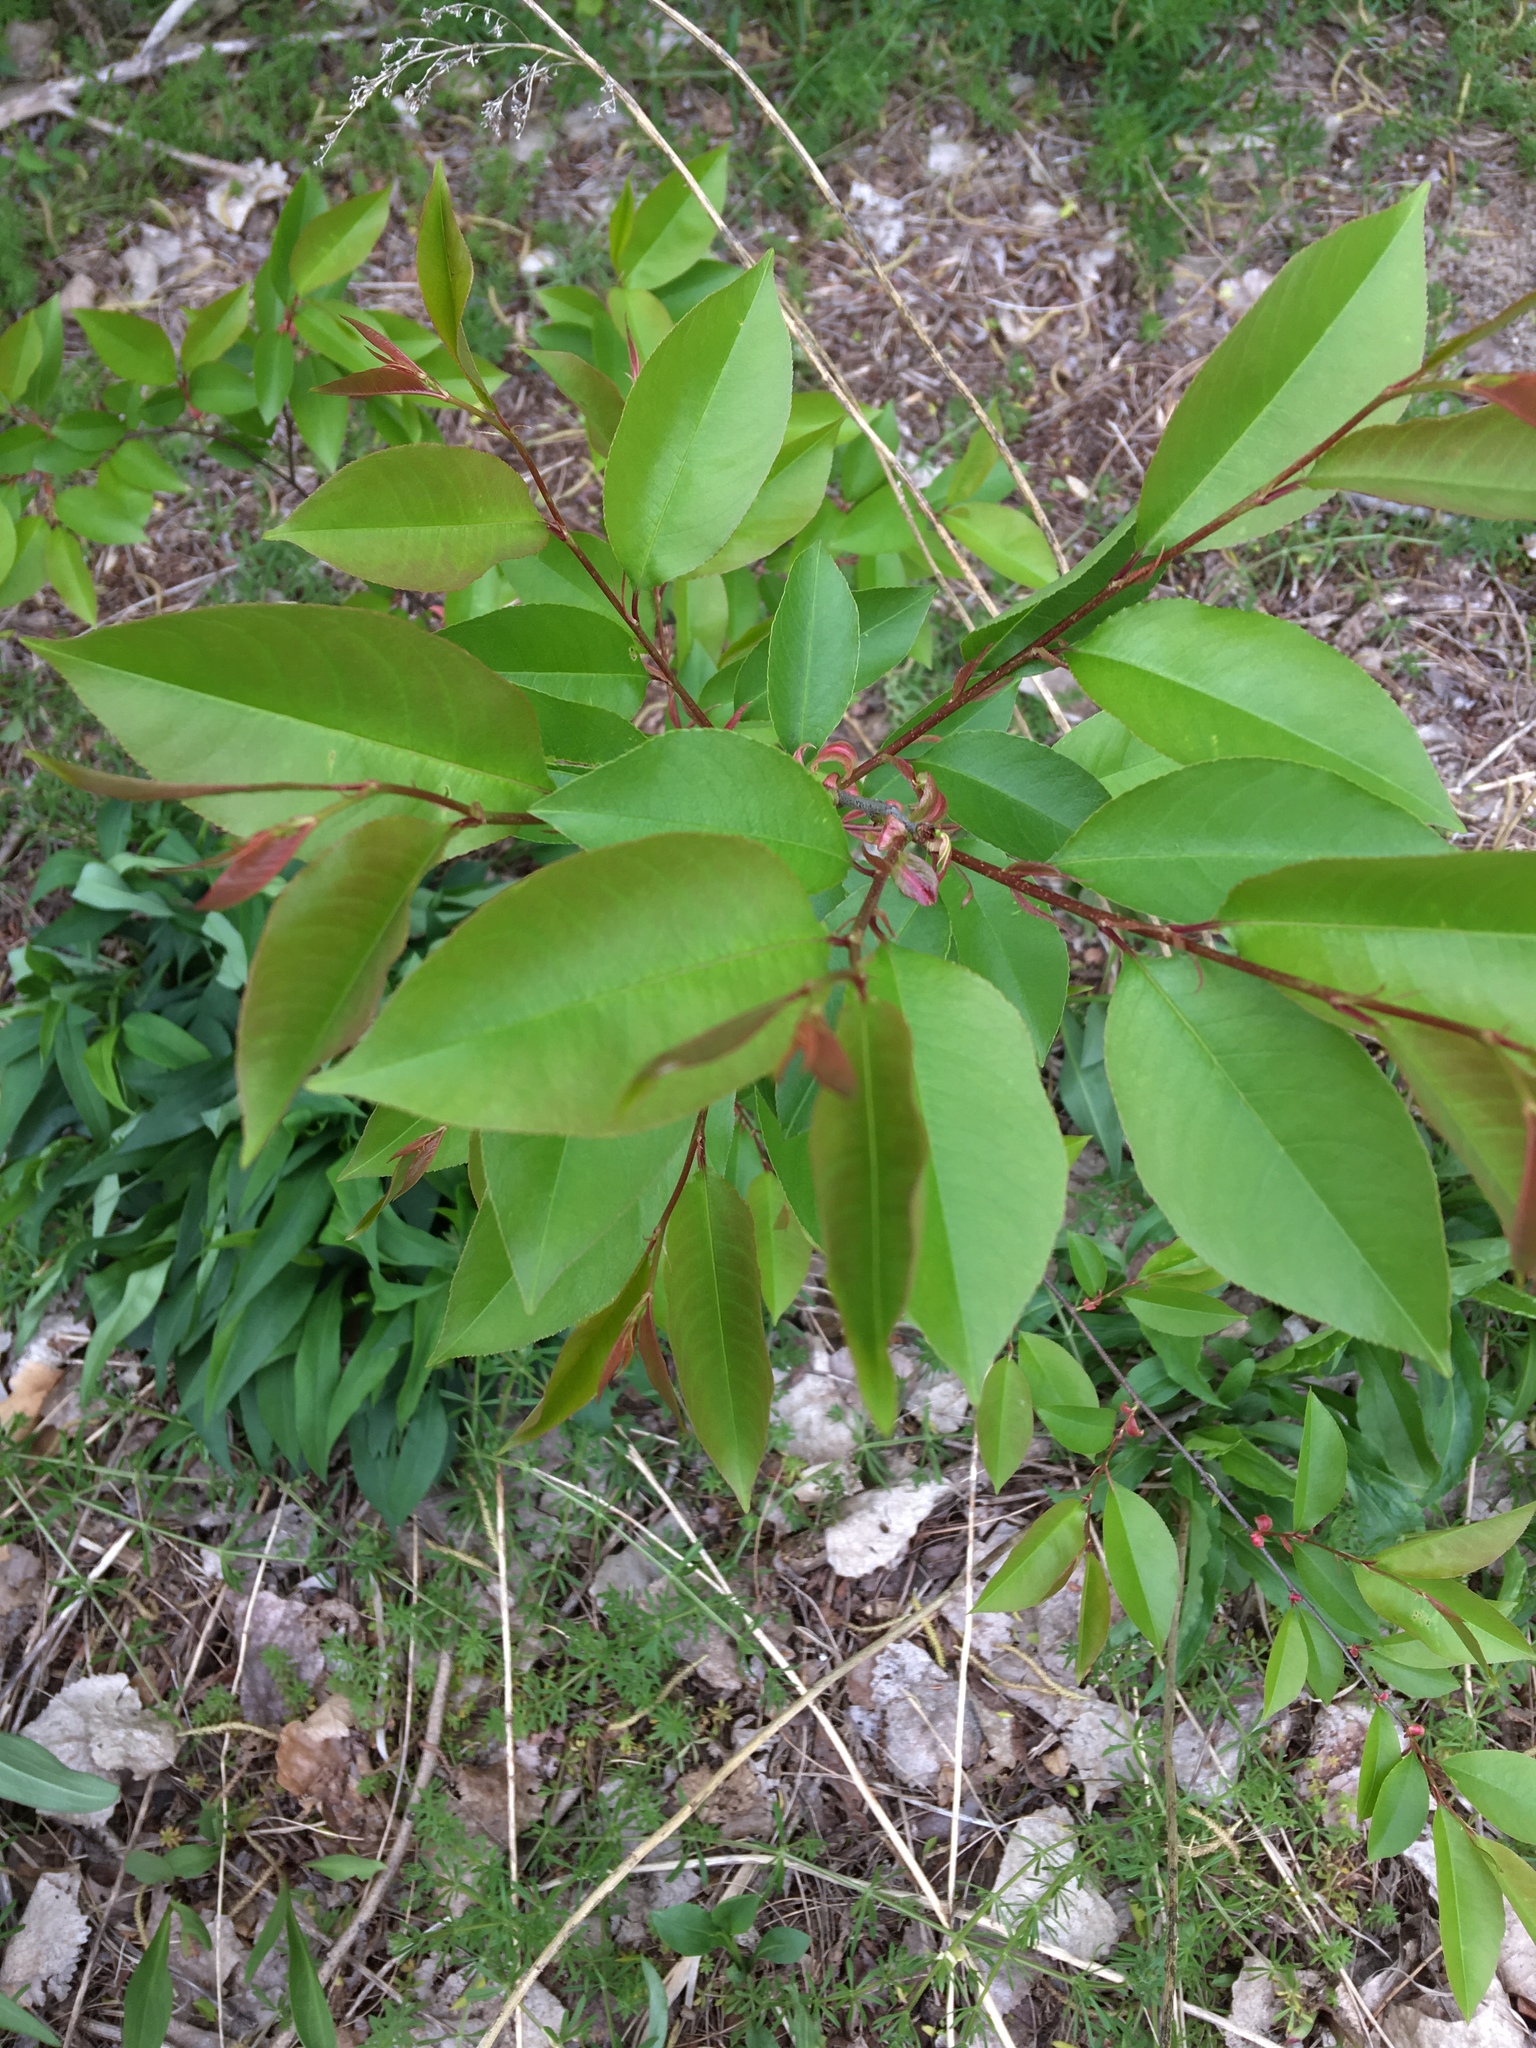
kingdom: Plantae
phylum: Tracheophyta
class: Magnoliopsida
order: Rosales
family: Rosaceae
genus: Prunus
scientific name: Prunus serotina
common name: Black cherry
